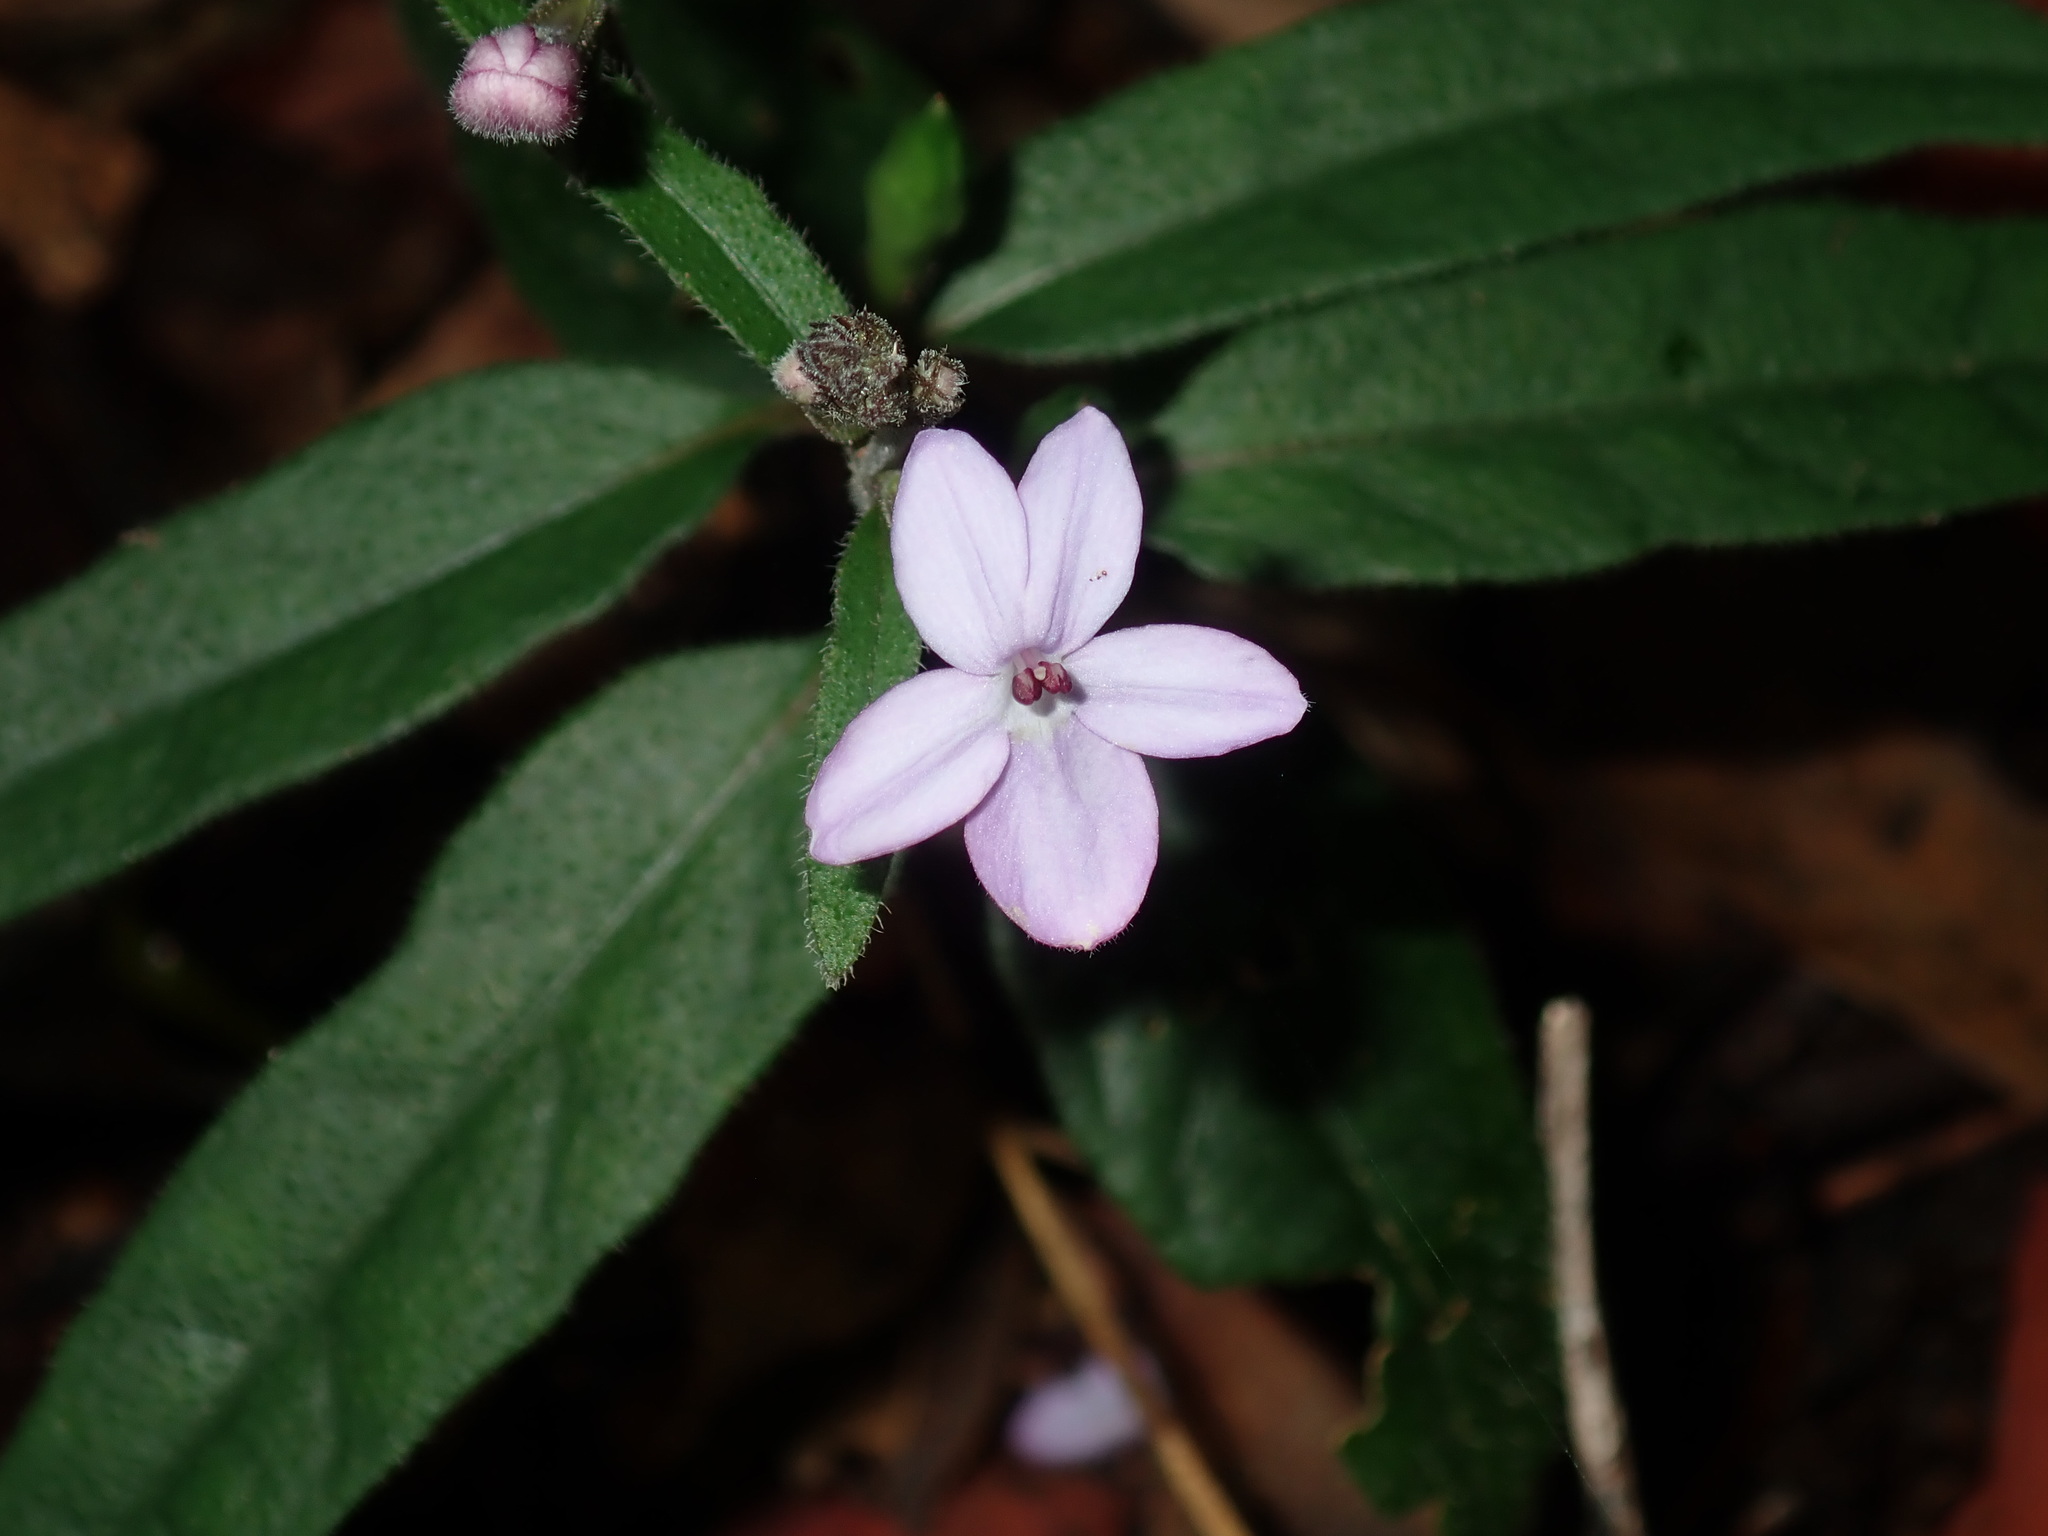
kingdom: Plantae
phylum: Tracheophyta
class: Magnoliopsida
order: Lamiales
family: Acanthaceae
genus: Pseuderanthemum
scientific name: Pseuderanthemum variabile
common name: Night and afternoon
